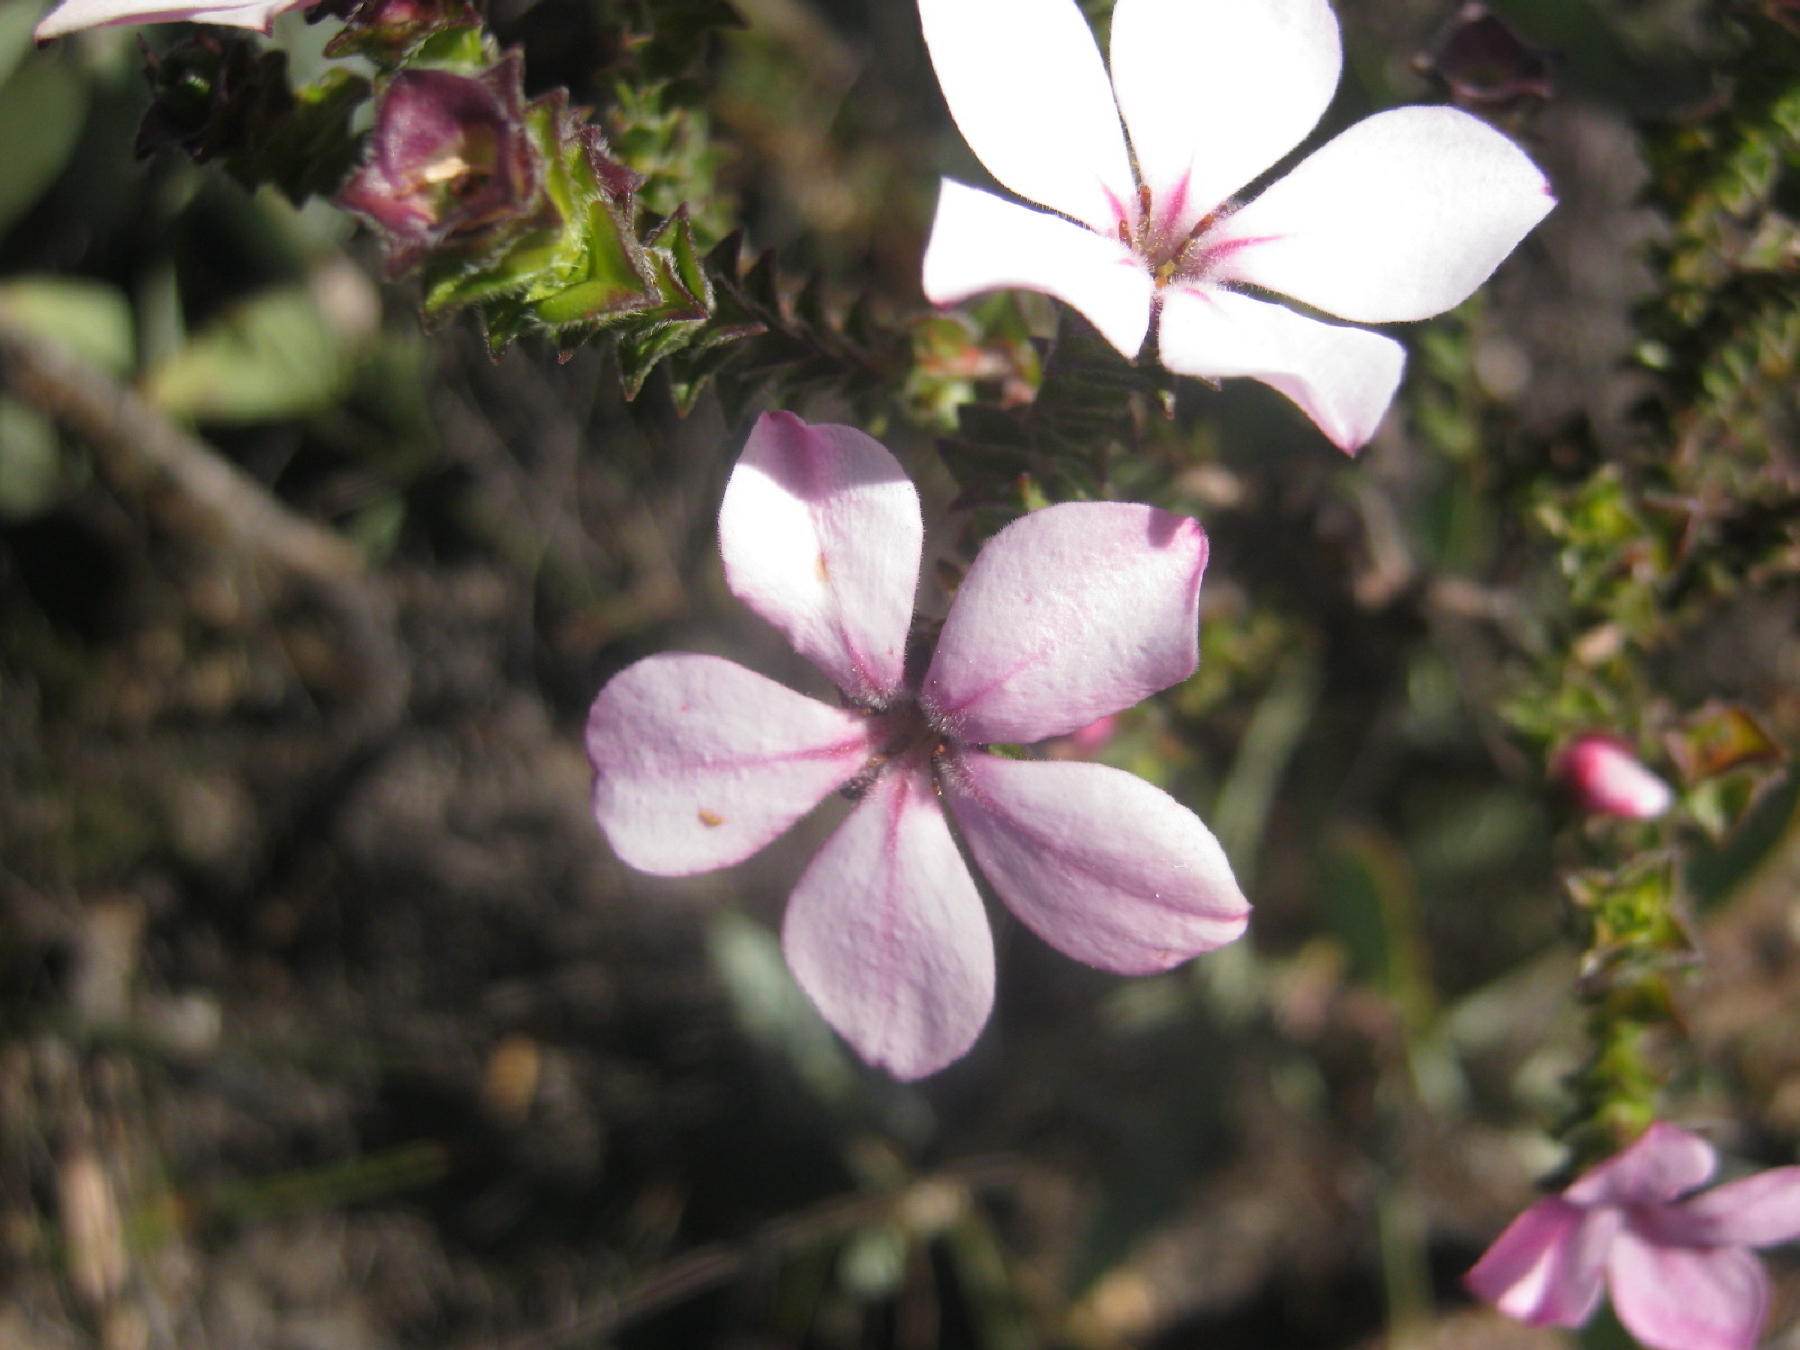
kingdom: Plantae
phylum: Tracheophyta
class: Magnoliopsida
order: Sapindales
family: Rutaceae
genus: Acmadenia
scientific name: Acmadenia tetragona
